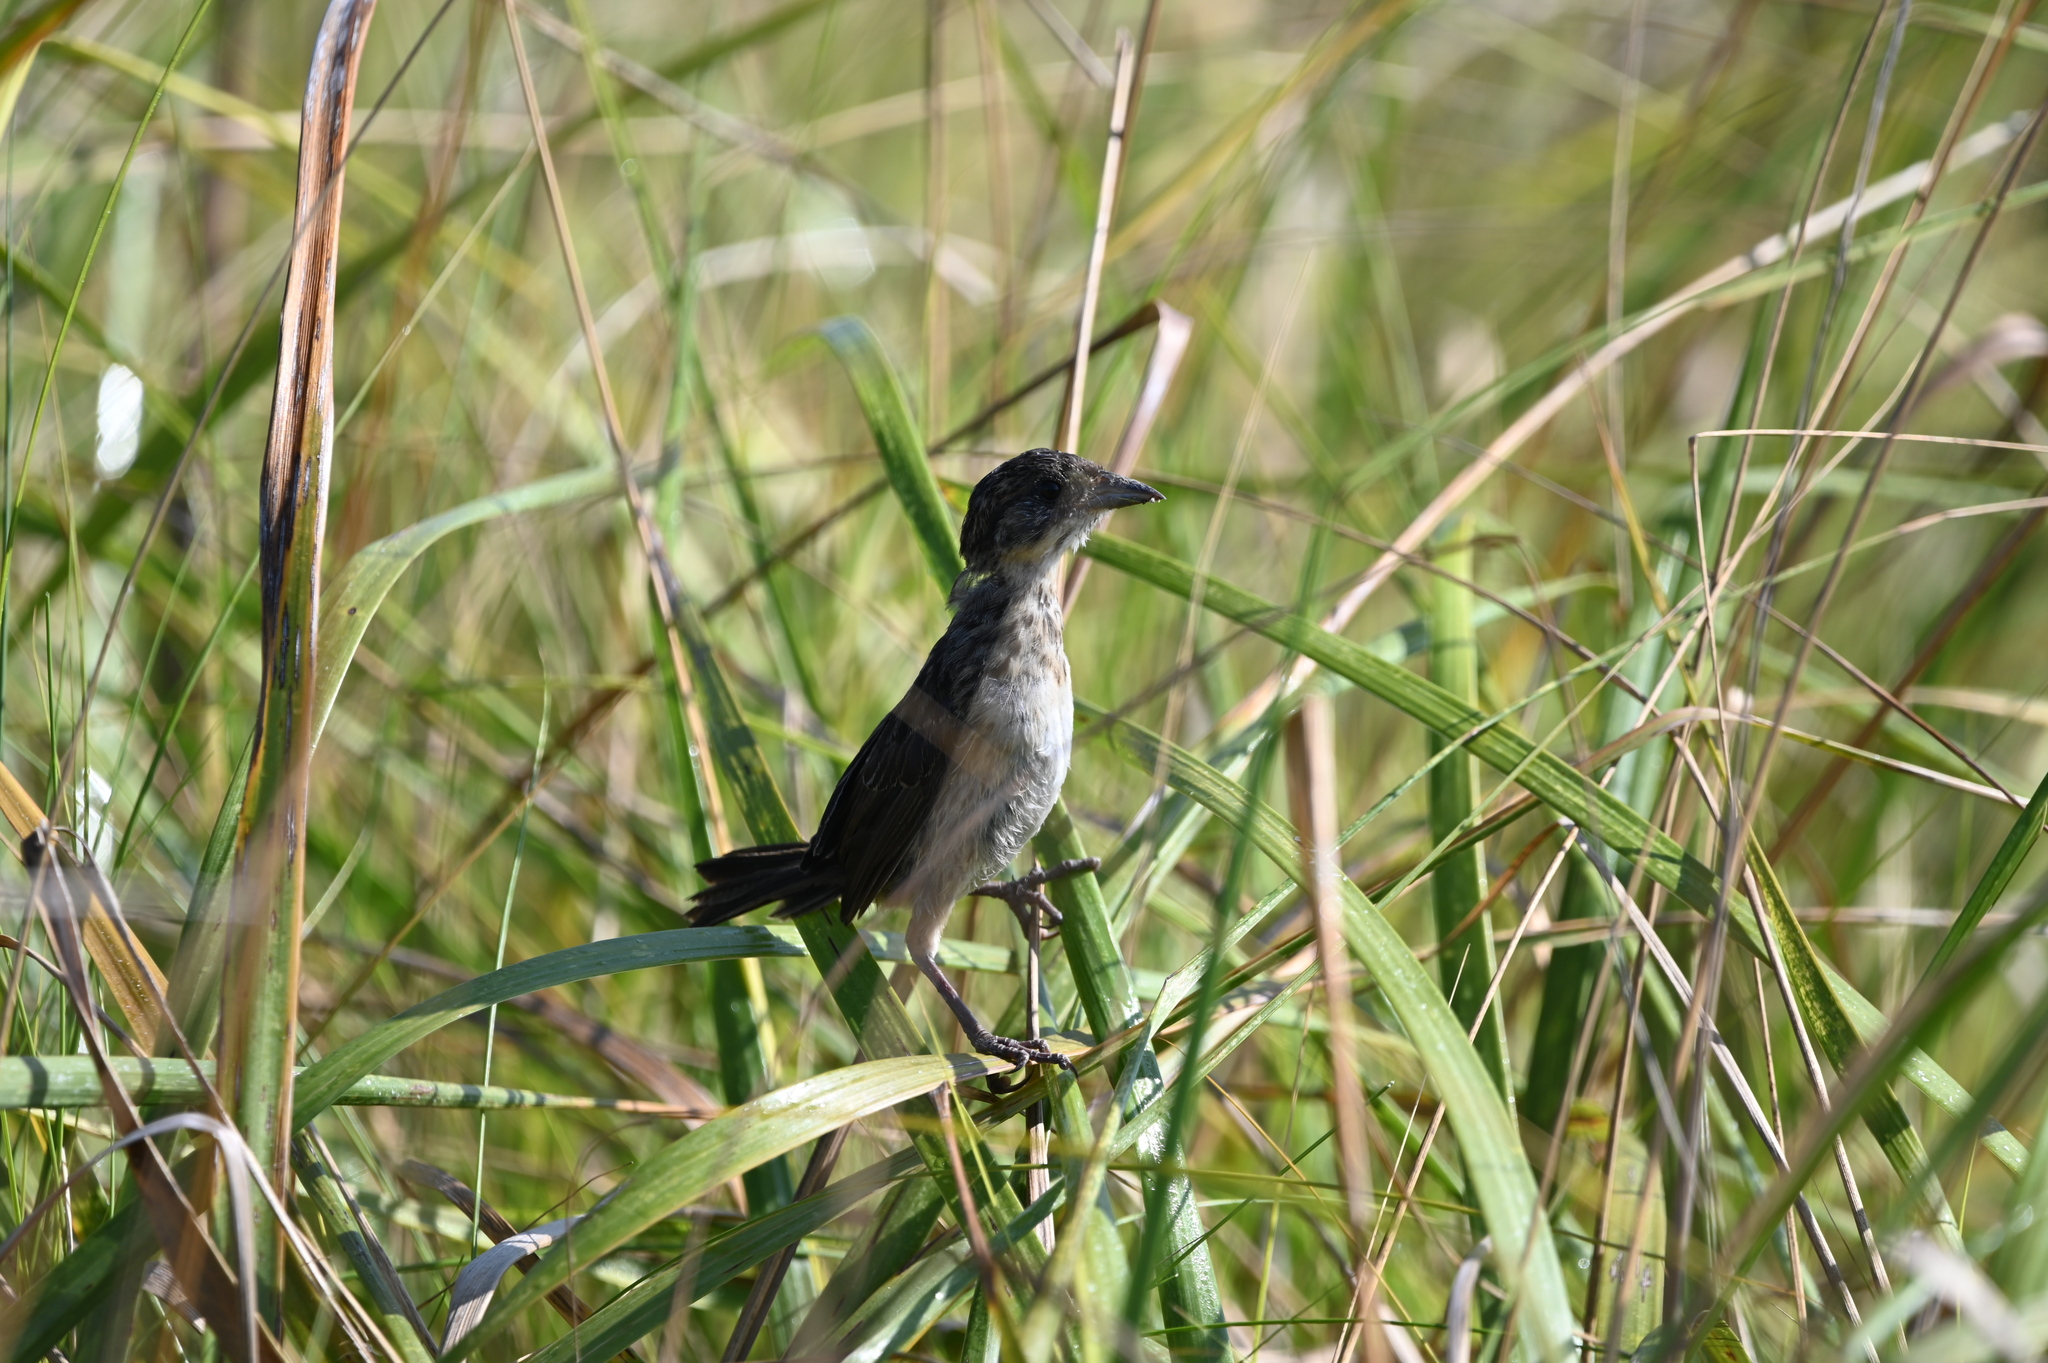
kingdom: Animalia
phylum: Chordata
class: Aves
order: Passeriformes
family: Passerellidae
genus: Ammospiza
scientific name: Ammospiza maritima
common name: Seaside sparrow
